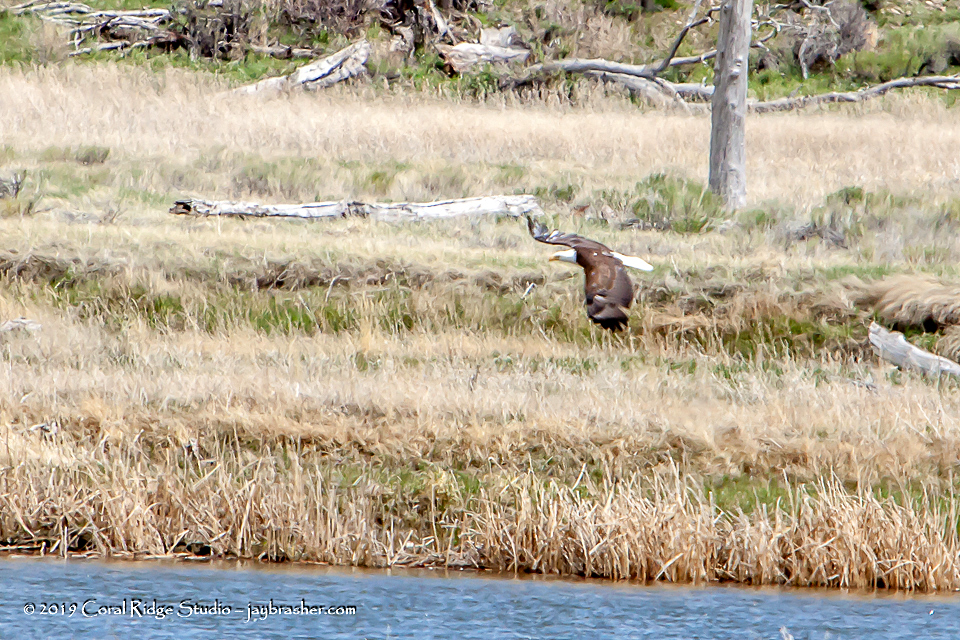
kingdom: Animalia
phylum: Chordata
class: Aves
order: Accipitriformes
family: Accipitridae
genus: Haliaeetus
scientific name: Haliaeetus leucocephalus
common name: Bald eagle
